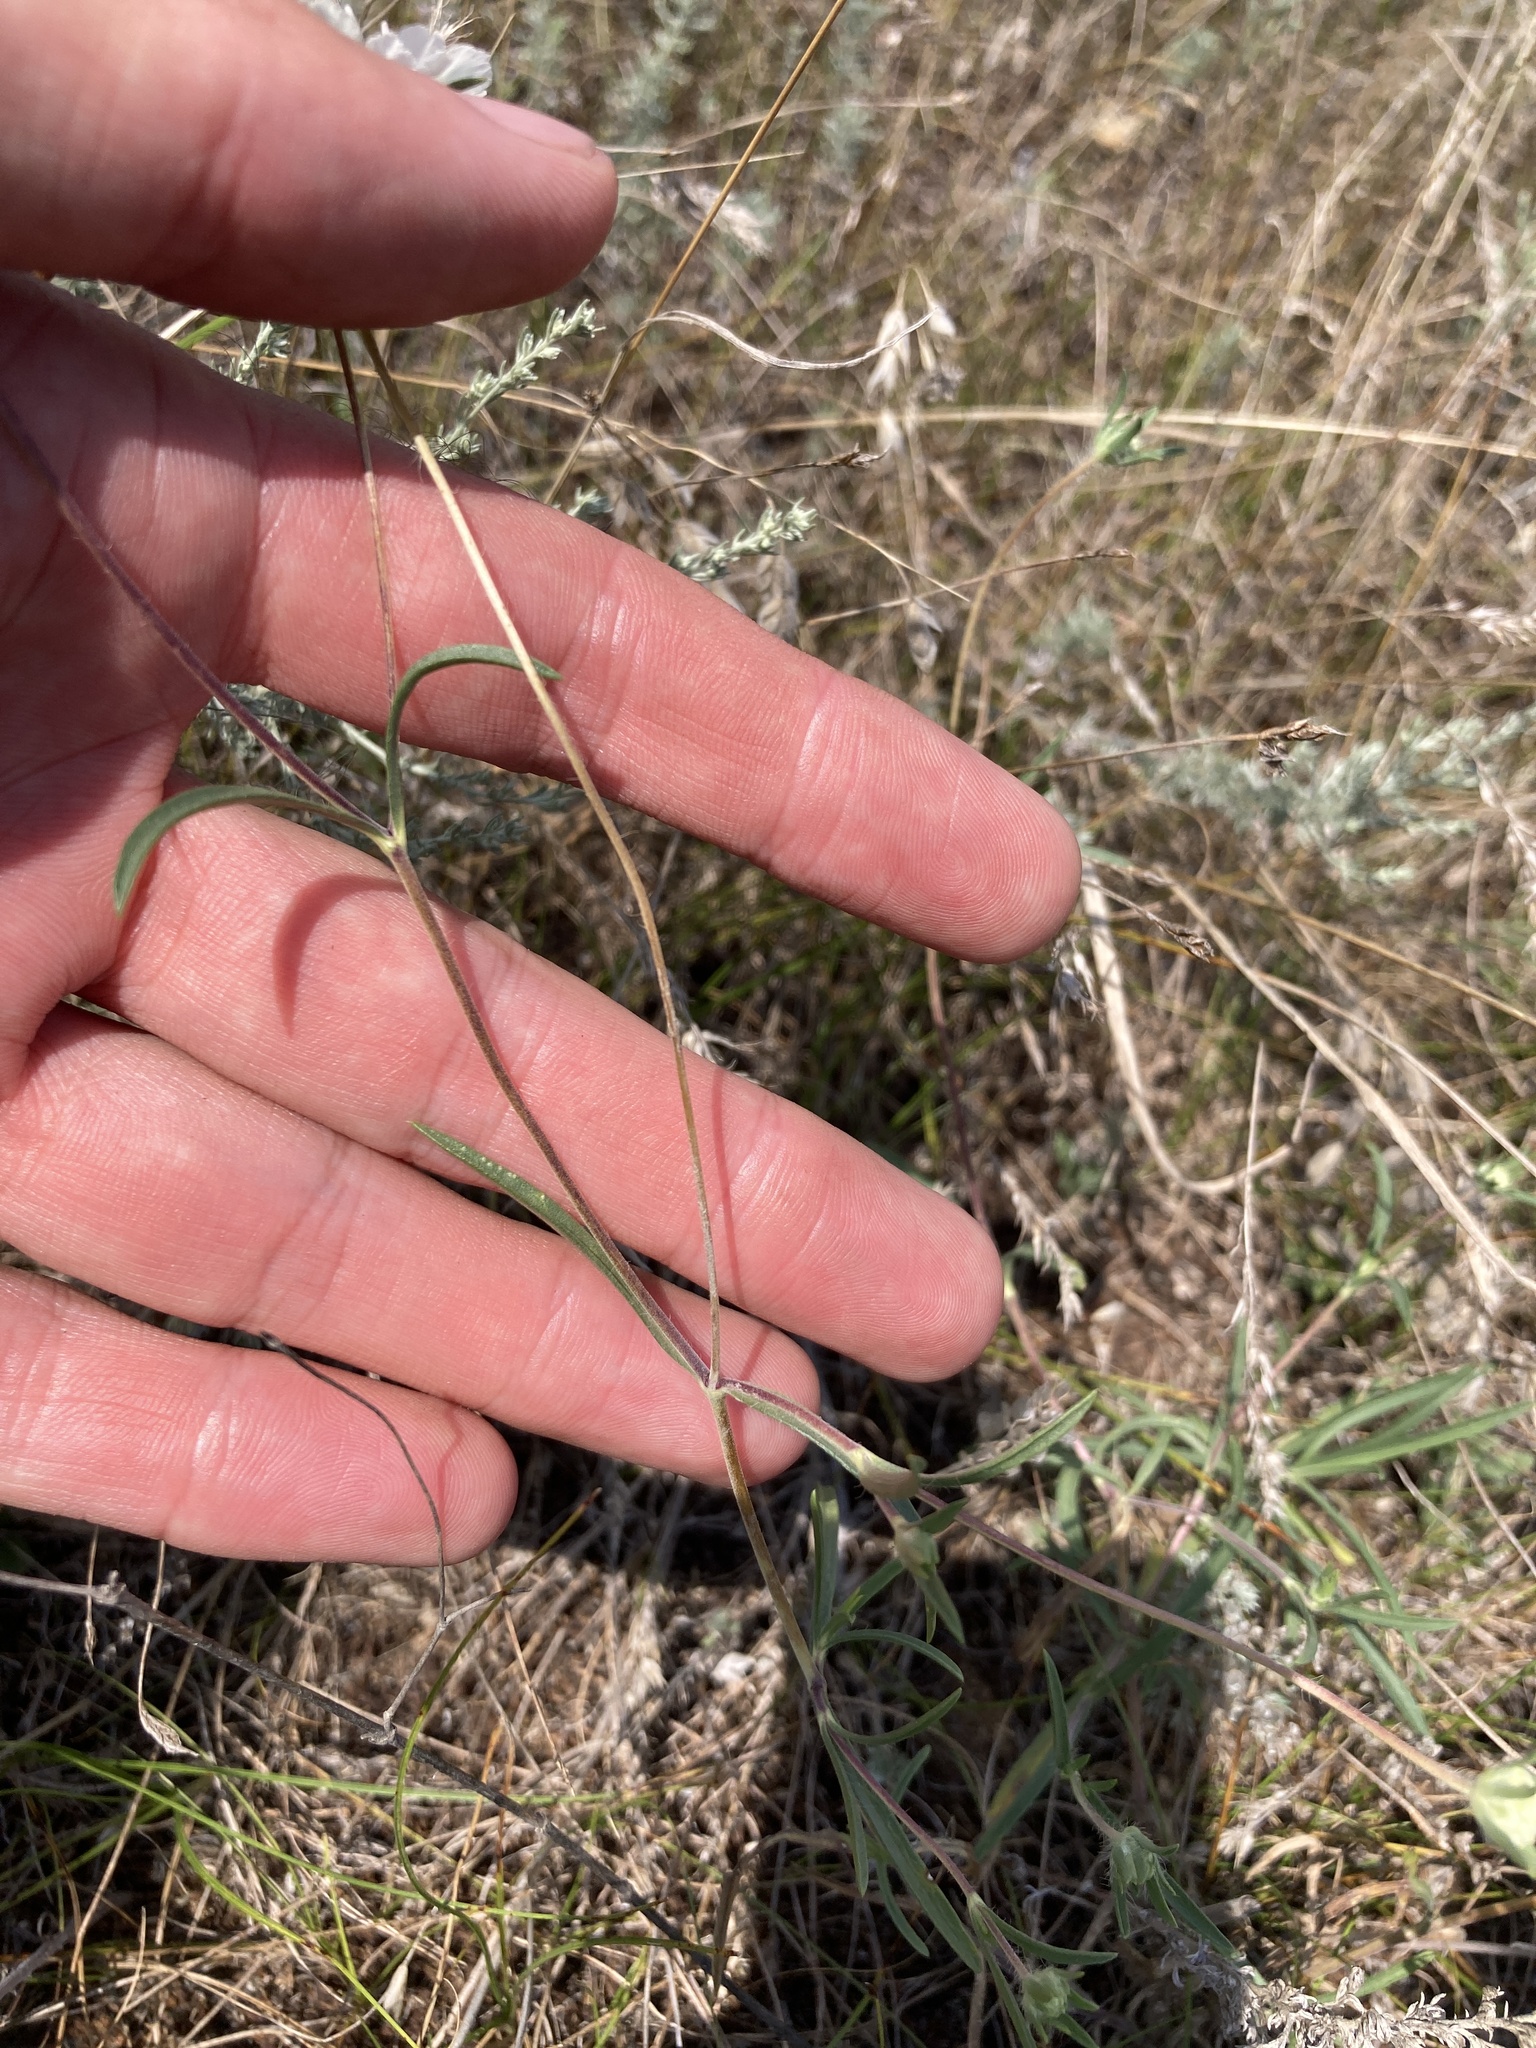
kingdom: Plantae
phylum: Tracheophyta
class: Magnoliopsida
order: Dipsacales
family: Caprifoliaceae
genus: Lomelosia
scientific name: Lomelosia argentea
